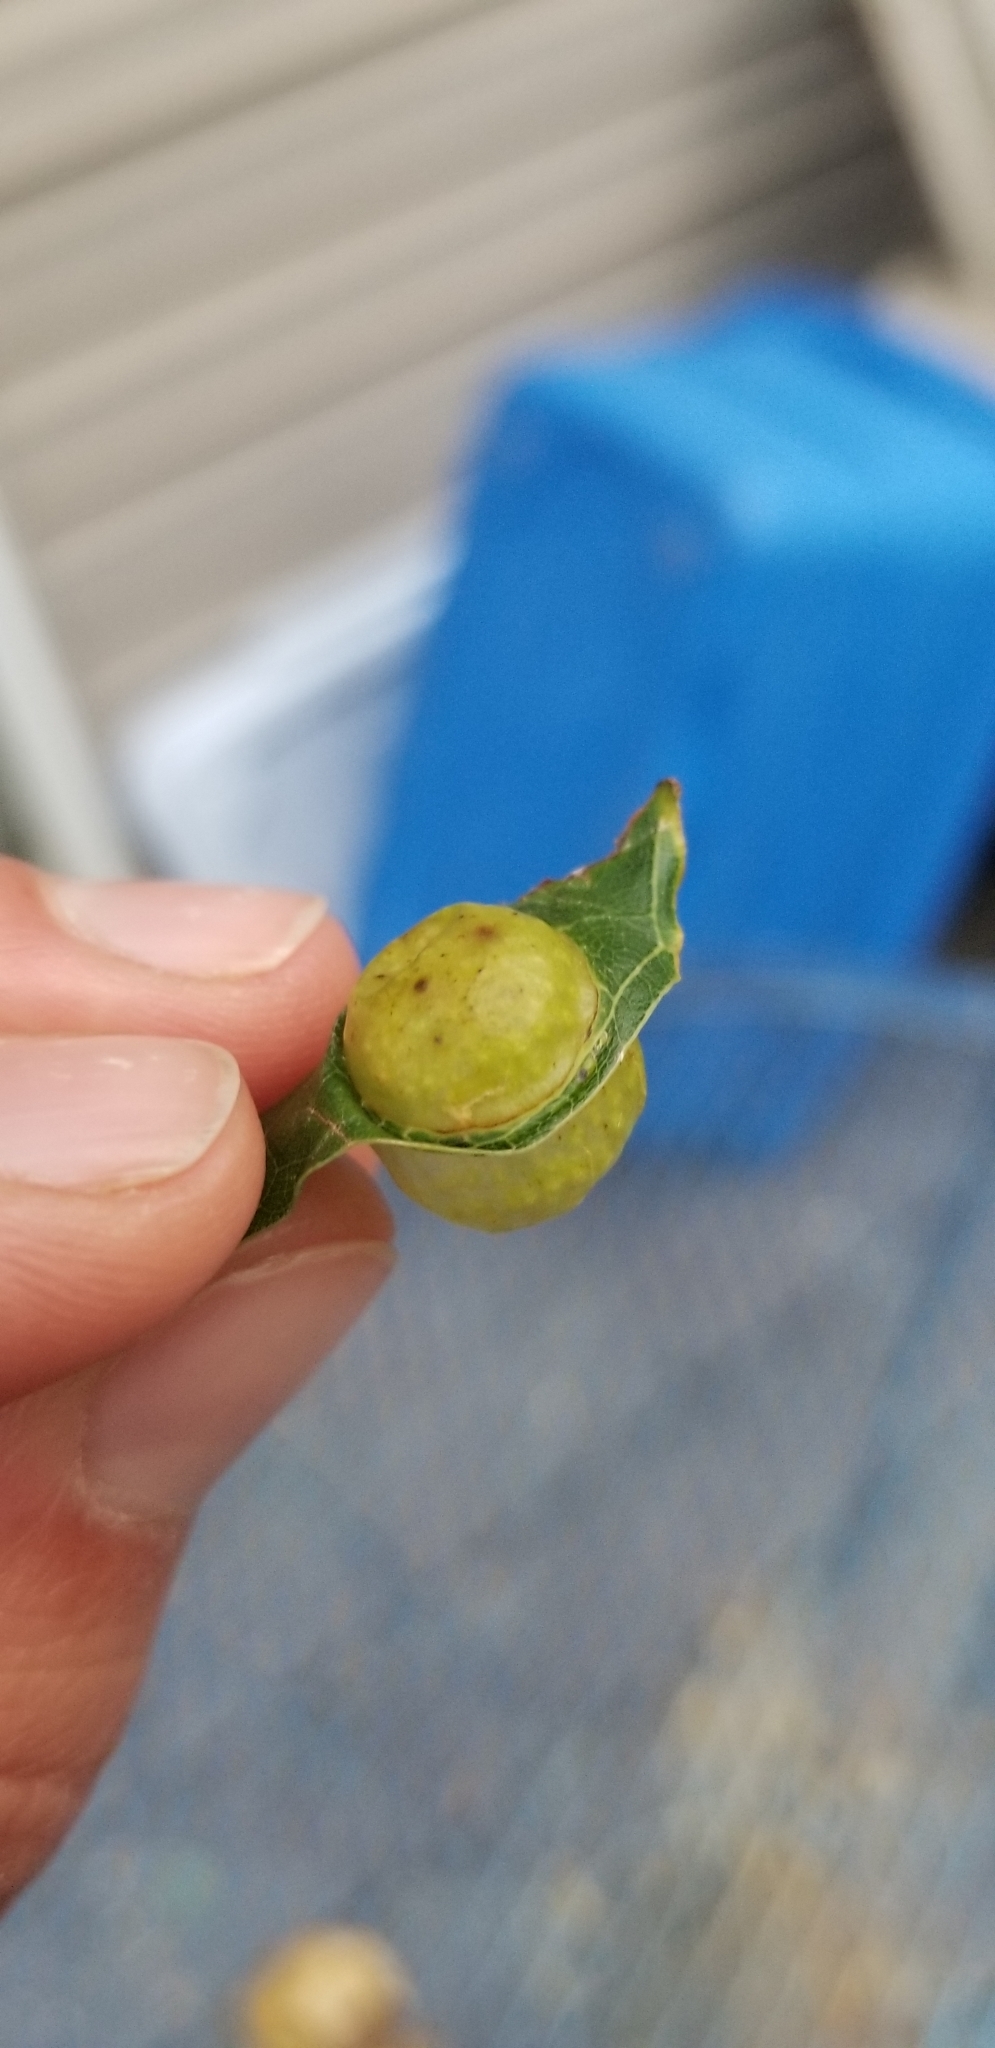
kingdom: Animalia
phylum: Arthropoda
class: Insecta
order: Hymenoptera
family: Cynipidae
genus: Amphibolips
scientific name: Amphibolips
